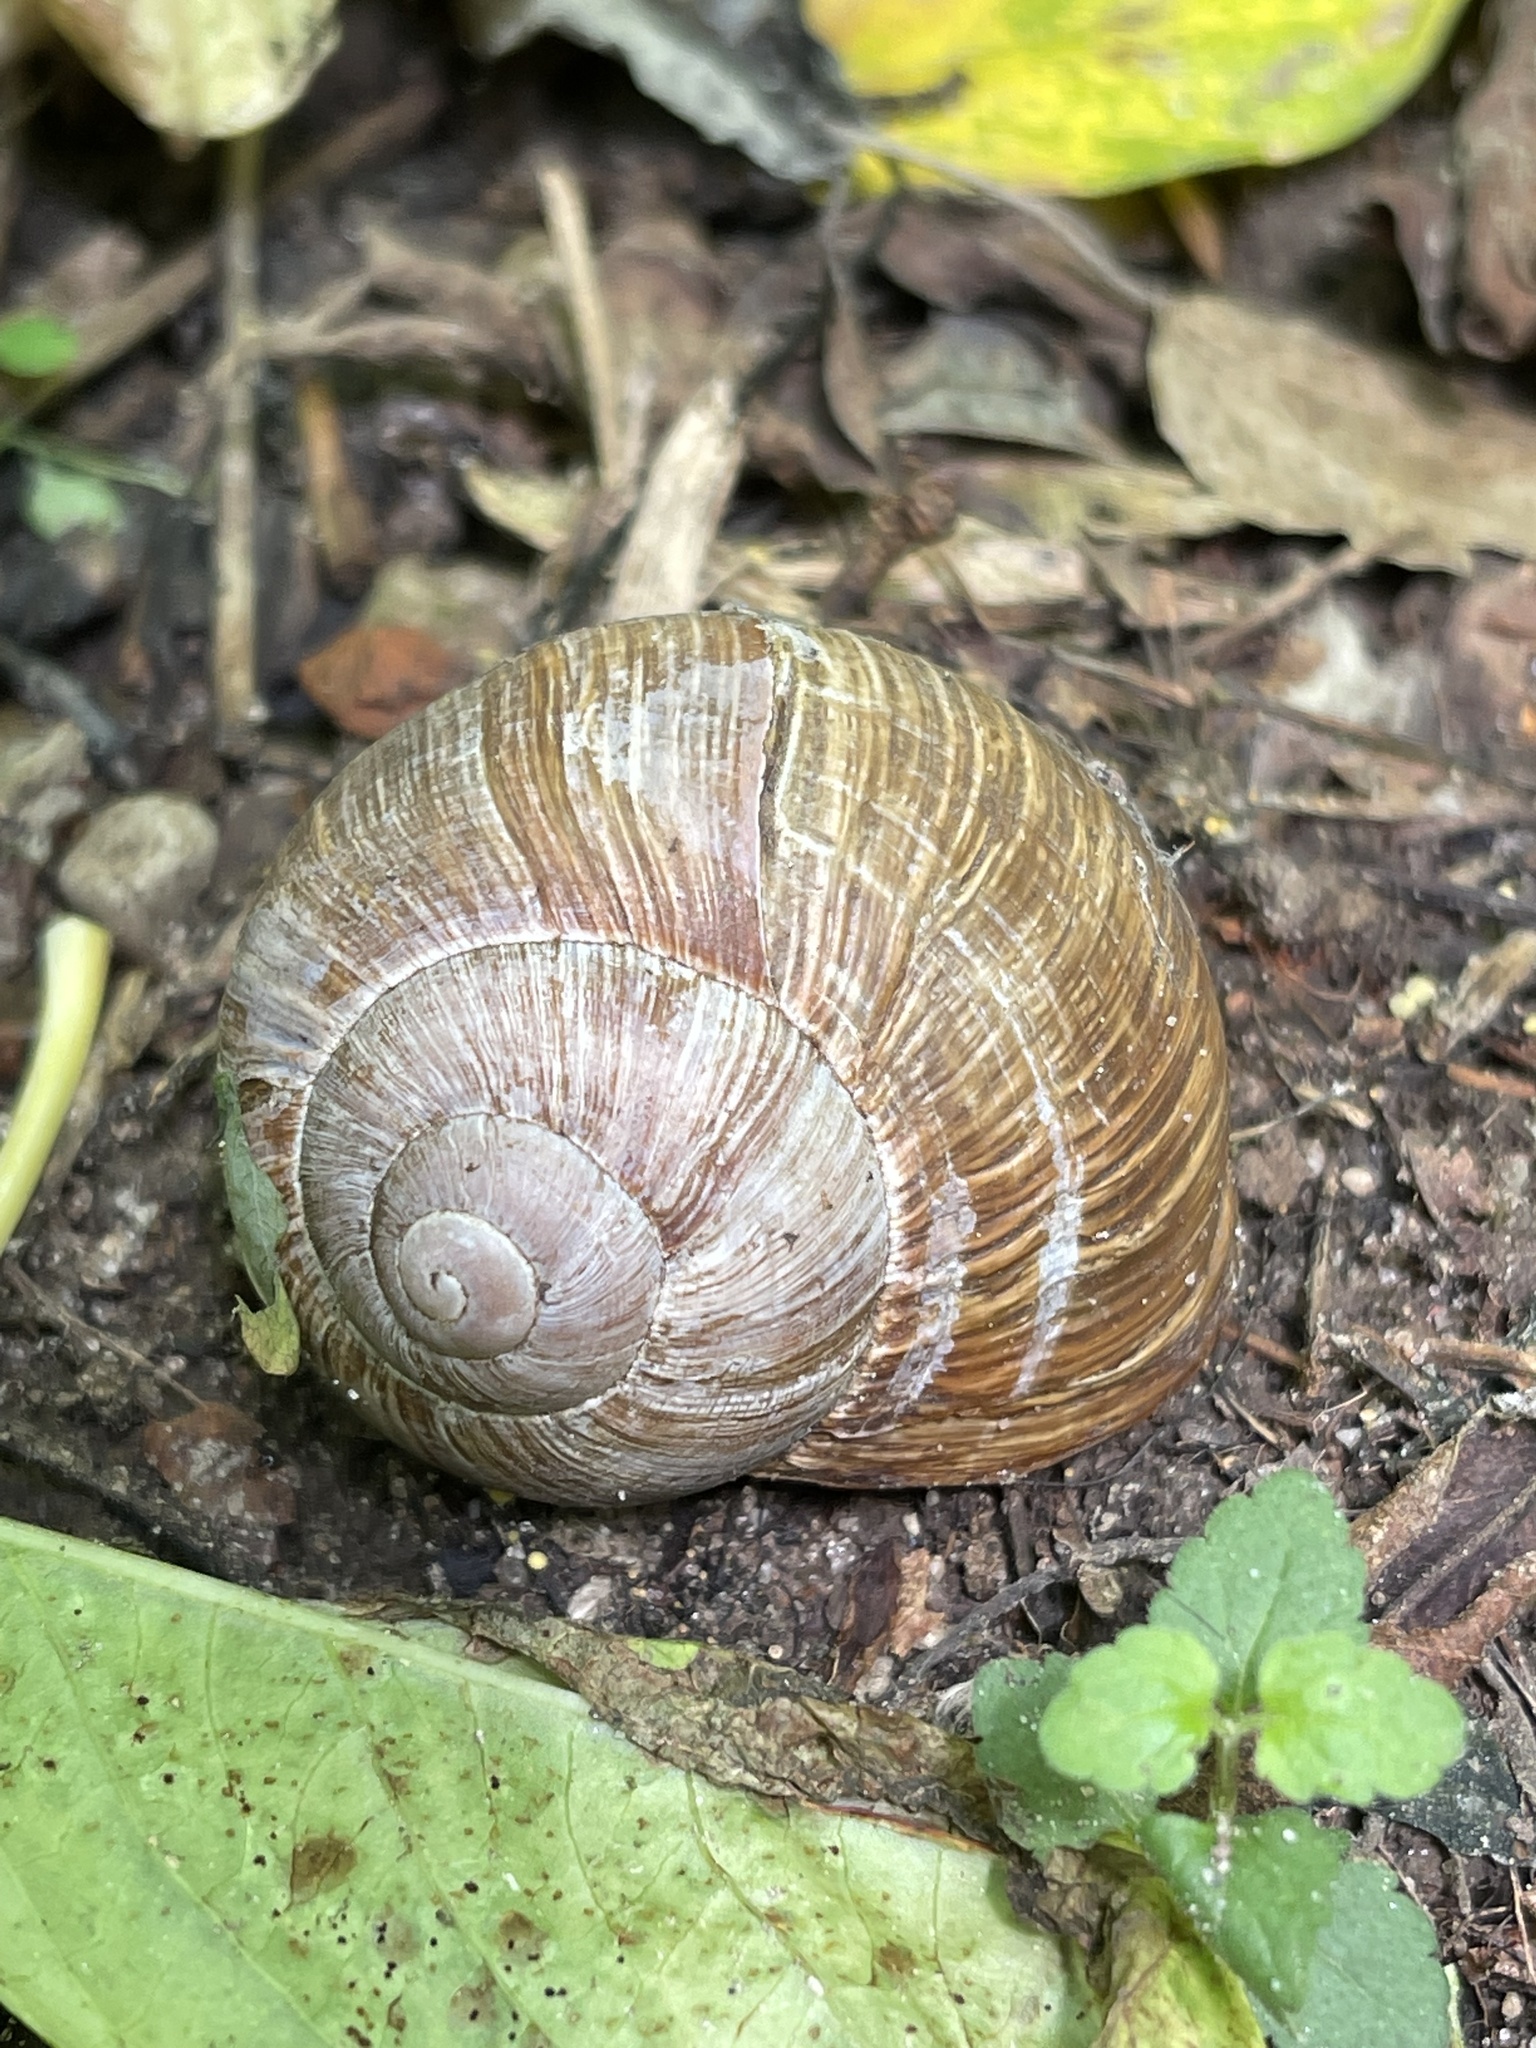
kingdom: Animalia
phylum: Mollusca
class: Gastropoda
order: Stylommatophora
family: Helicidae
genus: Helix
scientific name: Helix pomatia
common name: Roman snail
